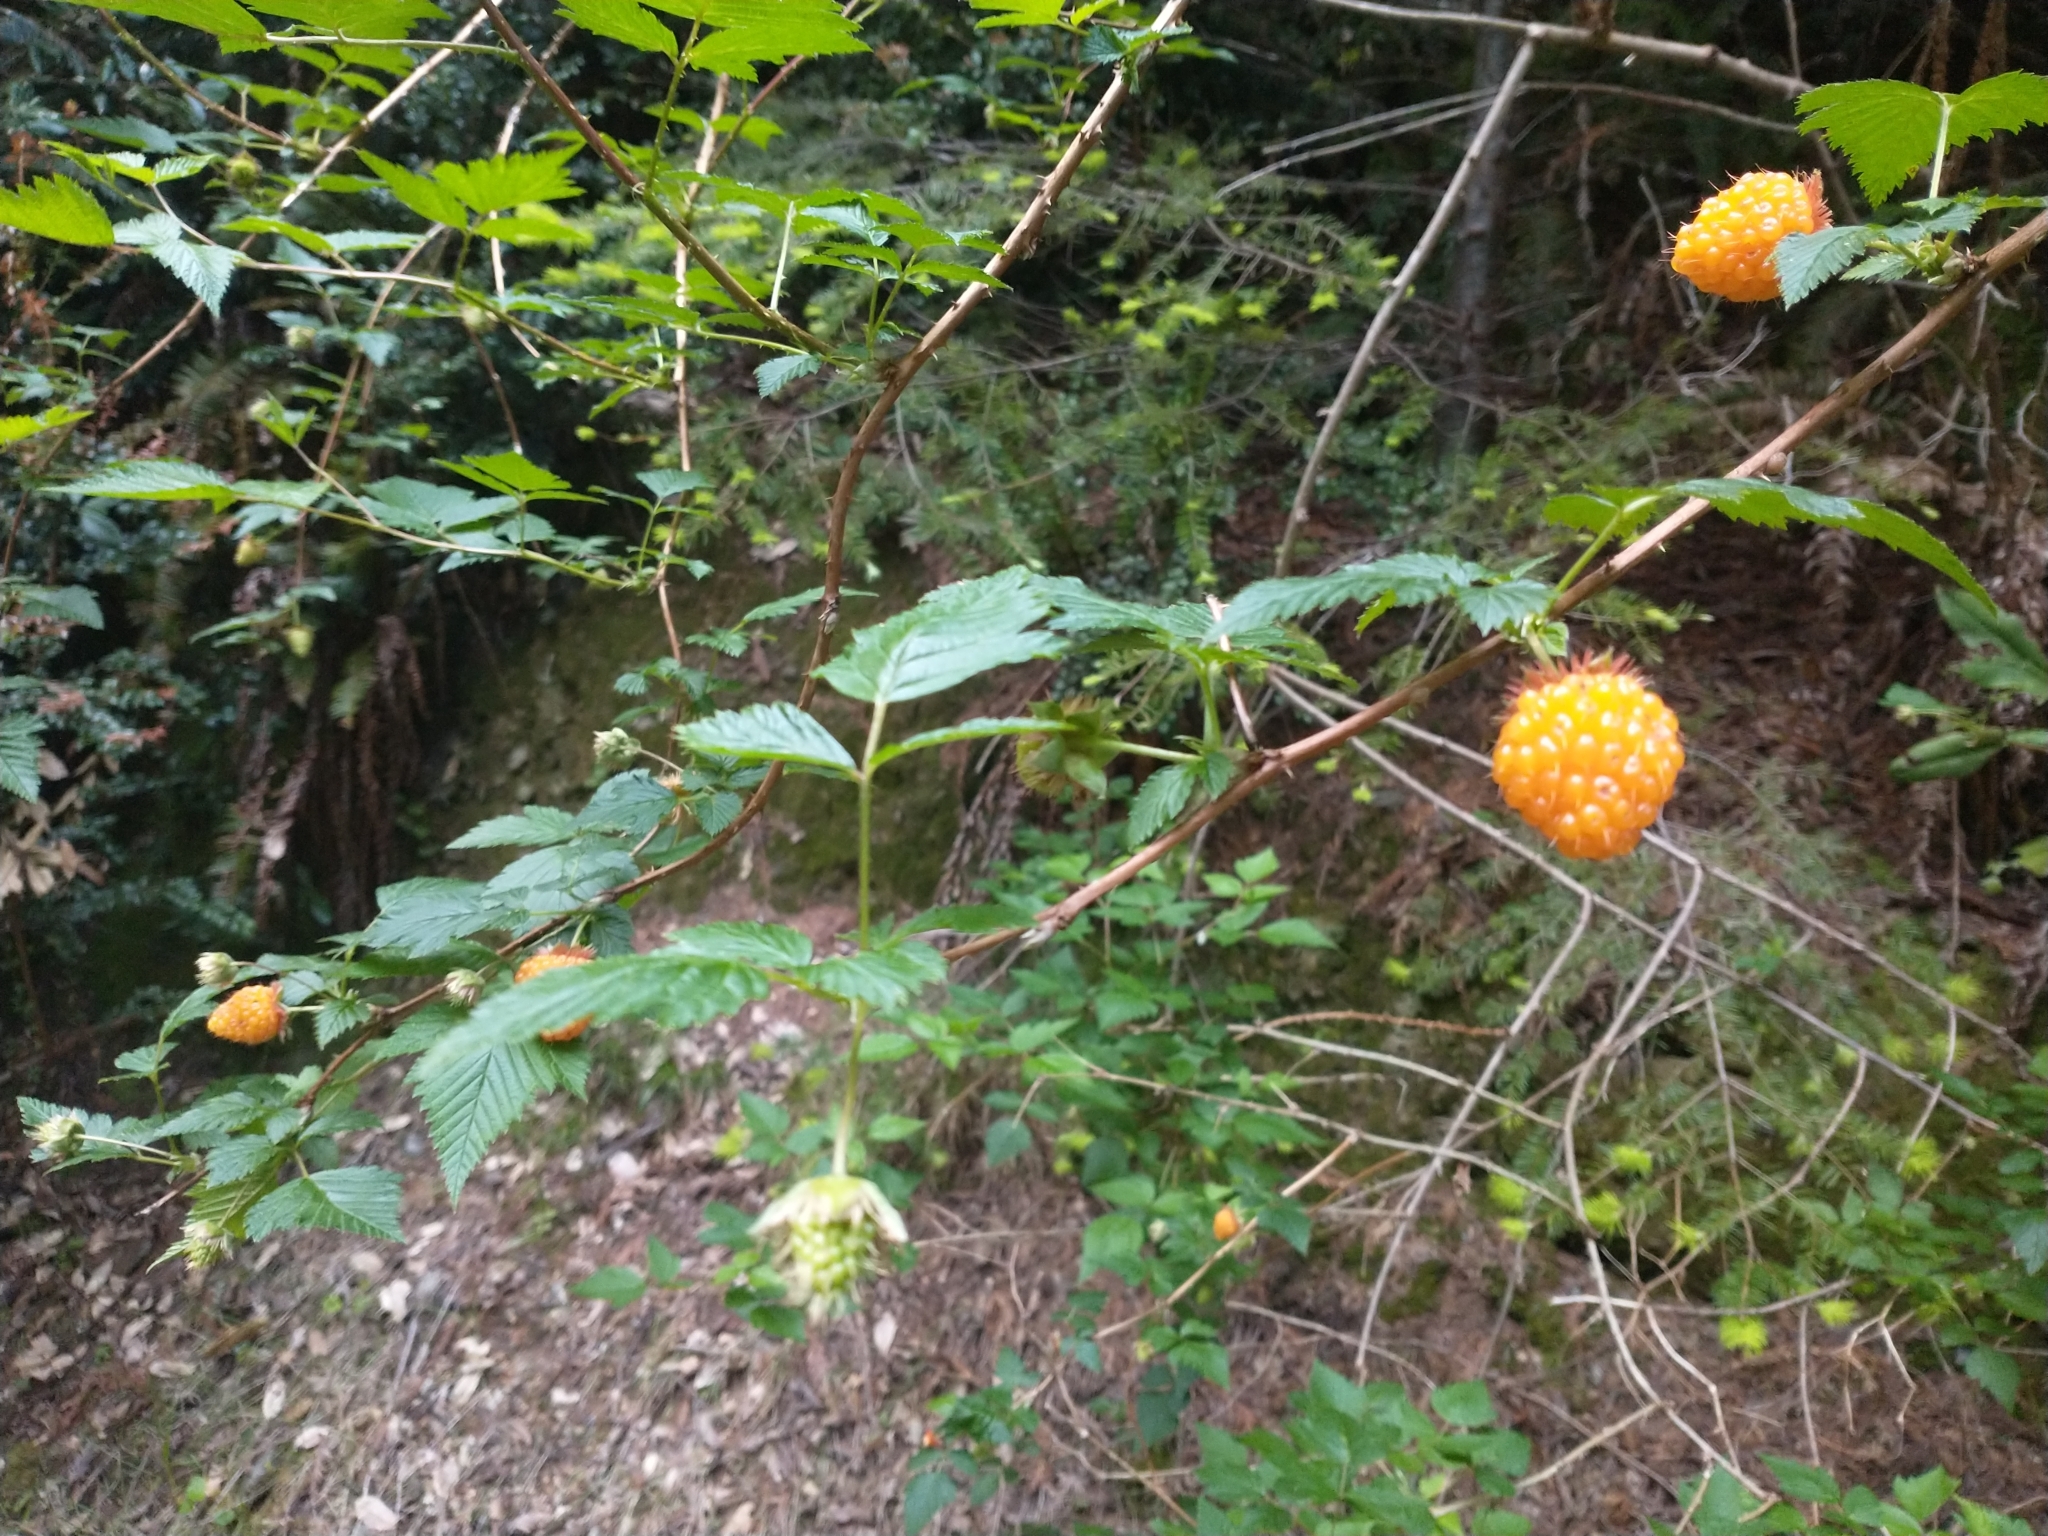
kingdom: Plantae
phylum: Tracheophyta
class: Magnoliopsida
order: Rosales
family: Rosaceae
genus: Rubus
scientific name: Rubus spectabilis
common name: Salmonberry
